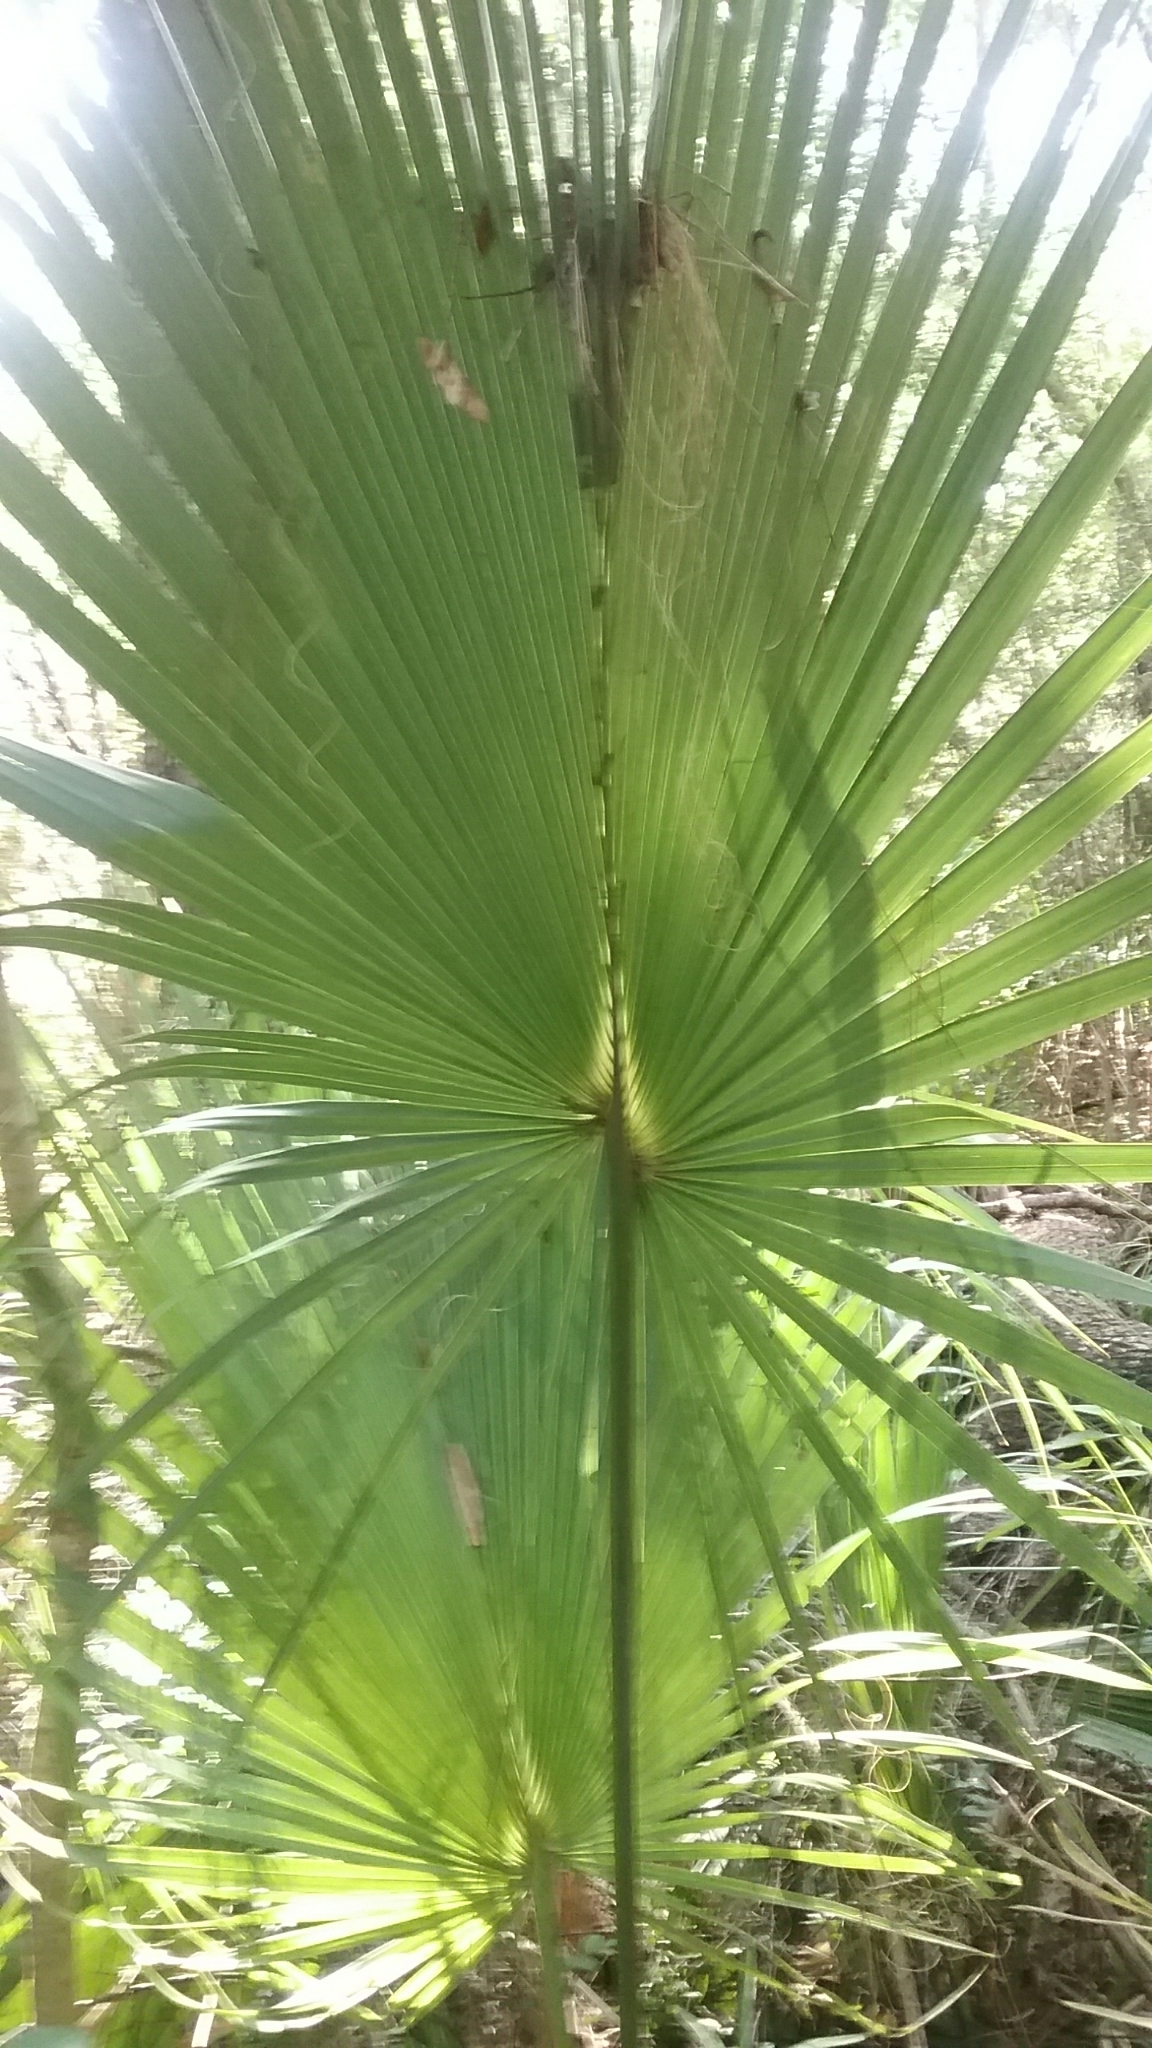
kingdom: Plantae
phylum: Tracheophyta
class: Liliopsida
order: Arecales
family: Arecaceae
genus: Sabal
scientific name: Sabal palmetto
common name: Blue palmetto
